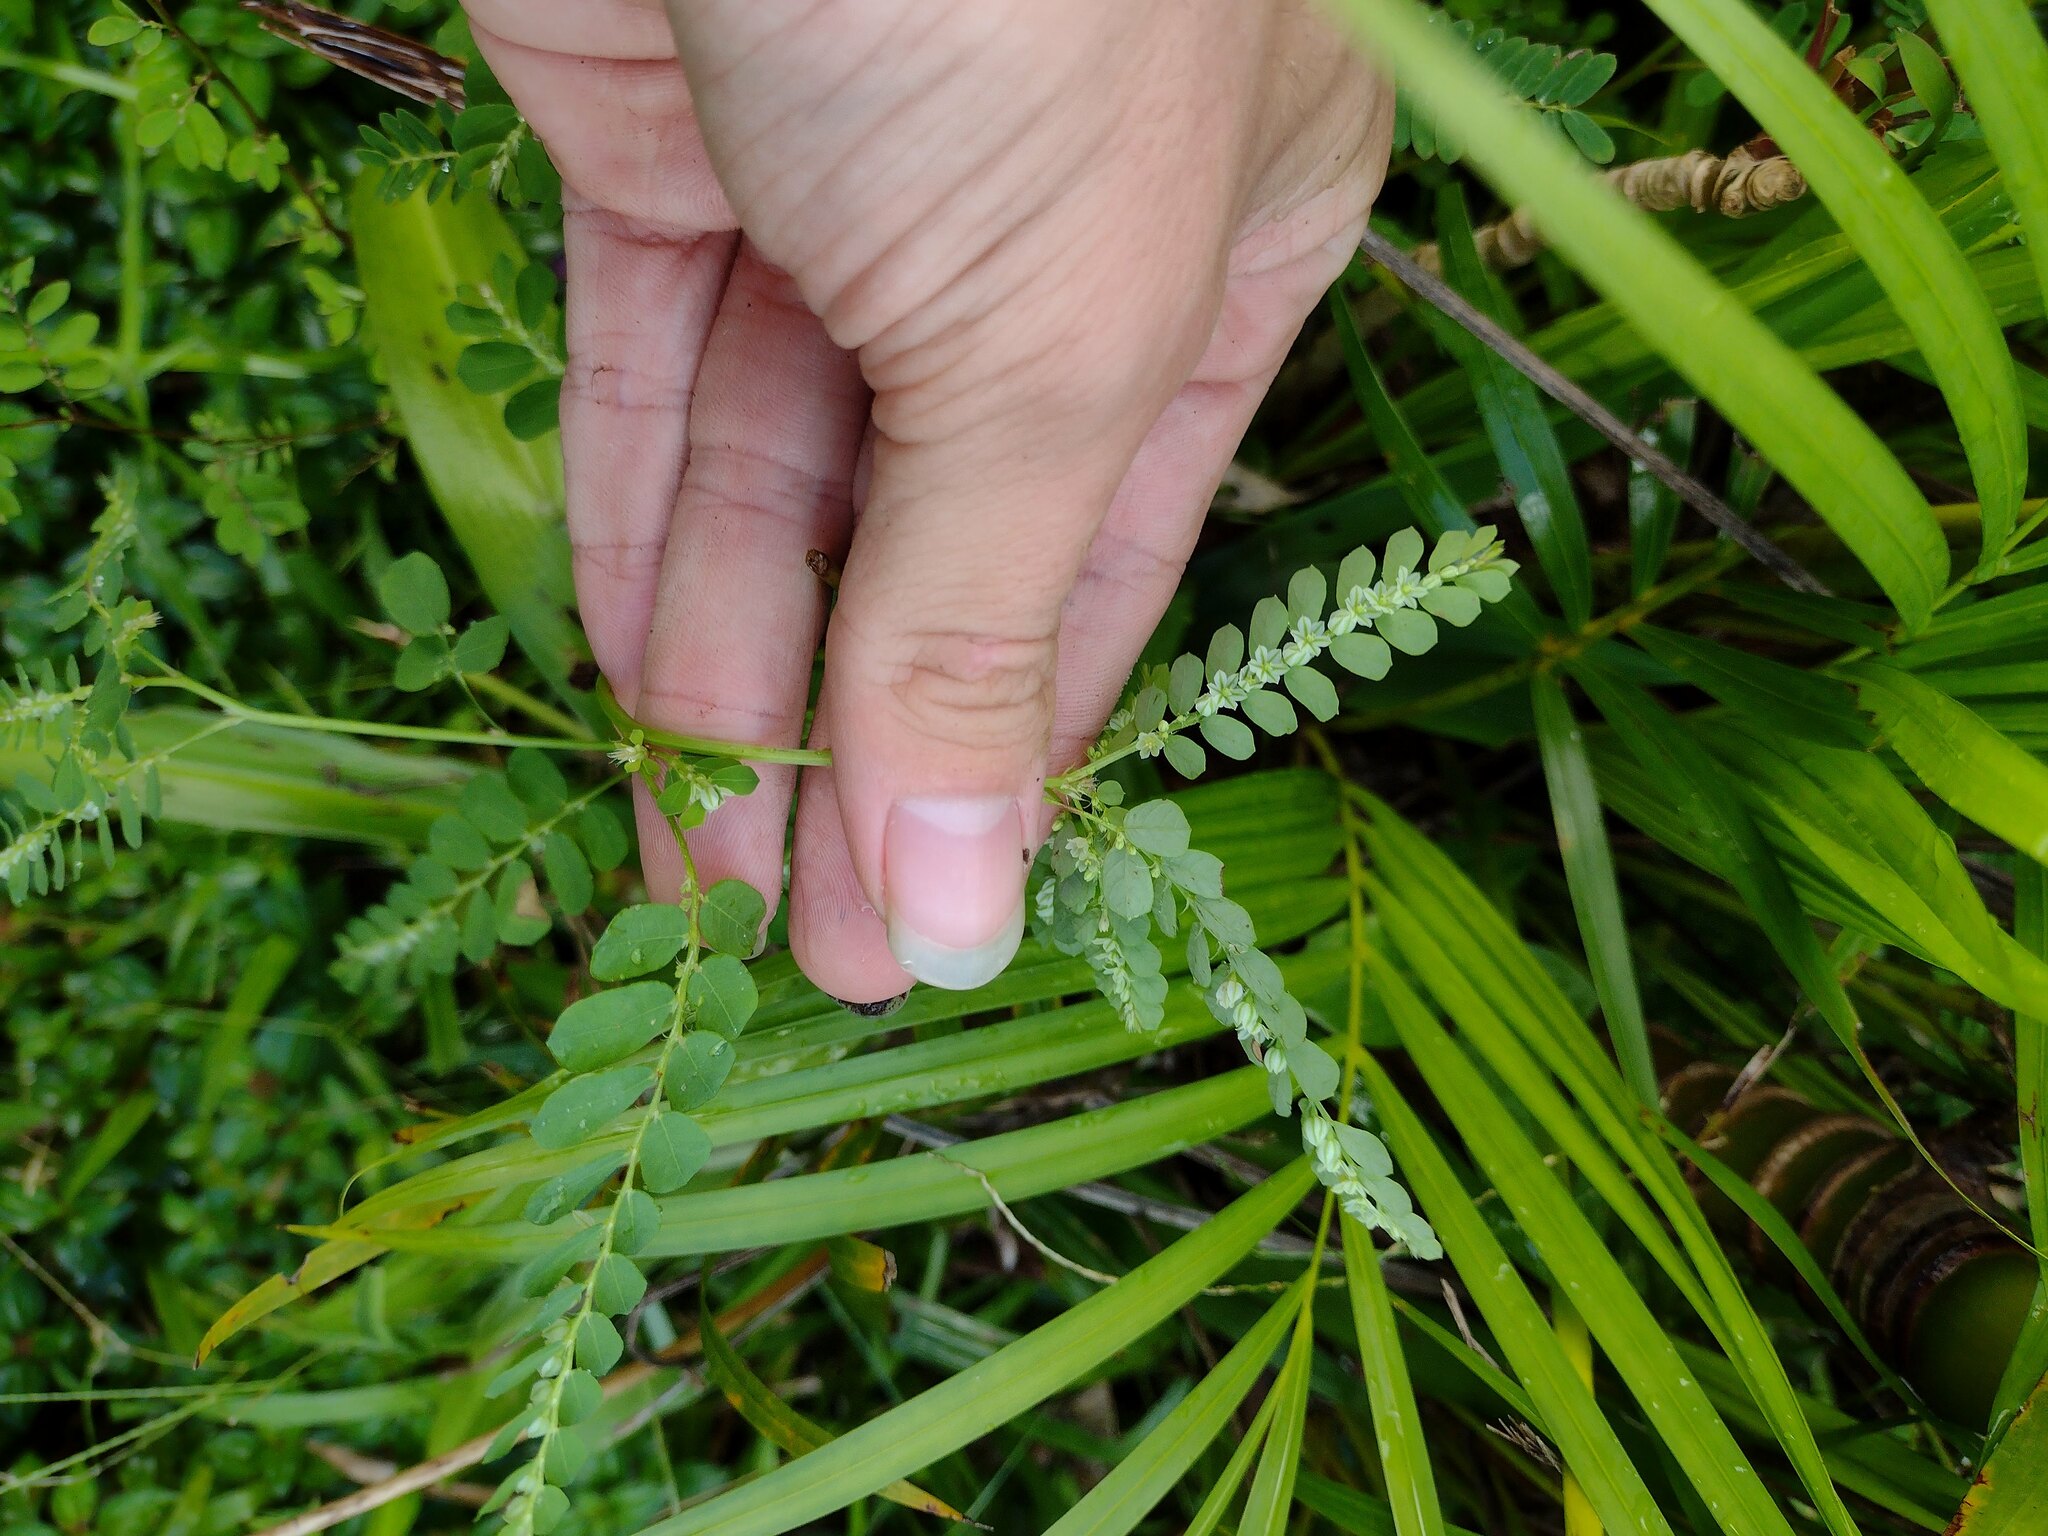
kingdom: Plantae
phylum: Tracheophyta
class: Magnoliopsida
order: Malpighiales
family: Phyllanthaceae
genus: Phyllanthus
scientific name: Phyllanthus leucanthus
